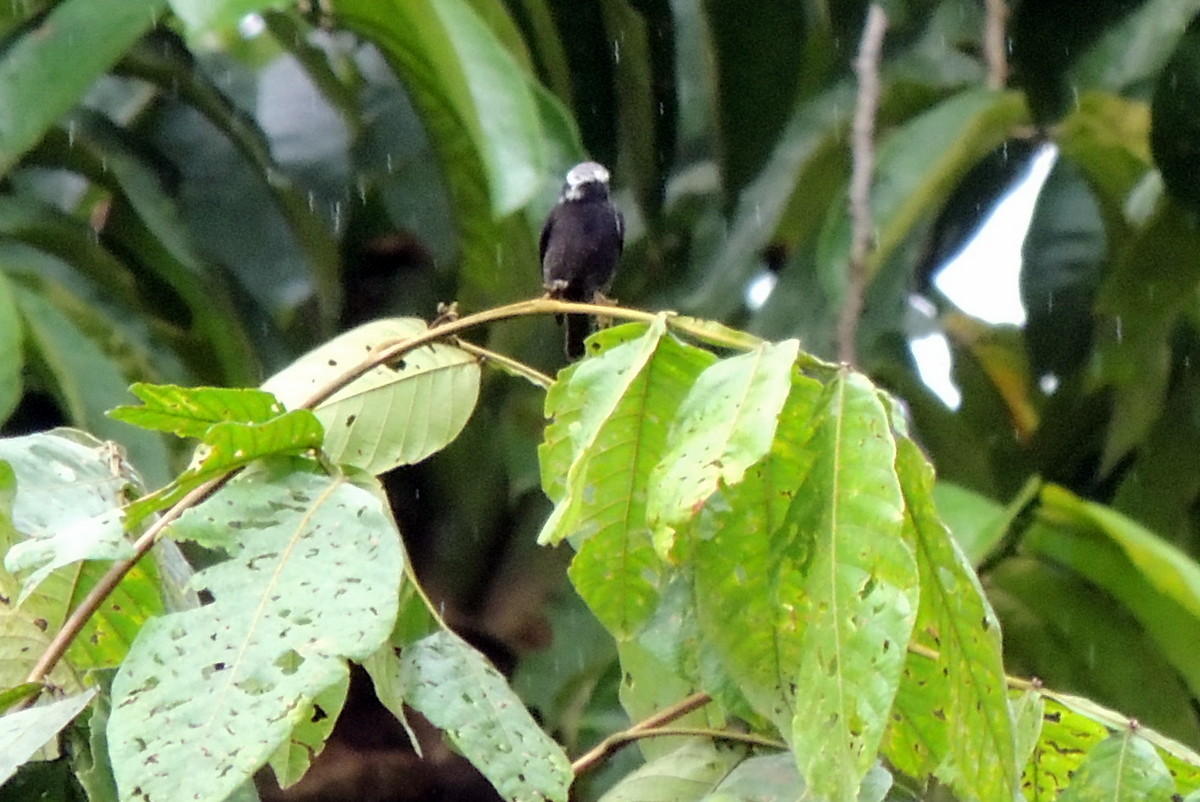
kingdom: Animalia
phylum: Chordata
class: Aves
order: Passeriformes
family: Tyrannidae
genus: Colonia
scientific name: Colonia colonus
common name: Long-tailed tyrant
